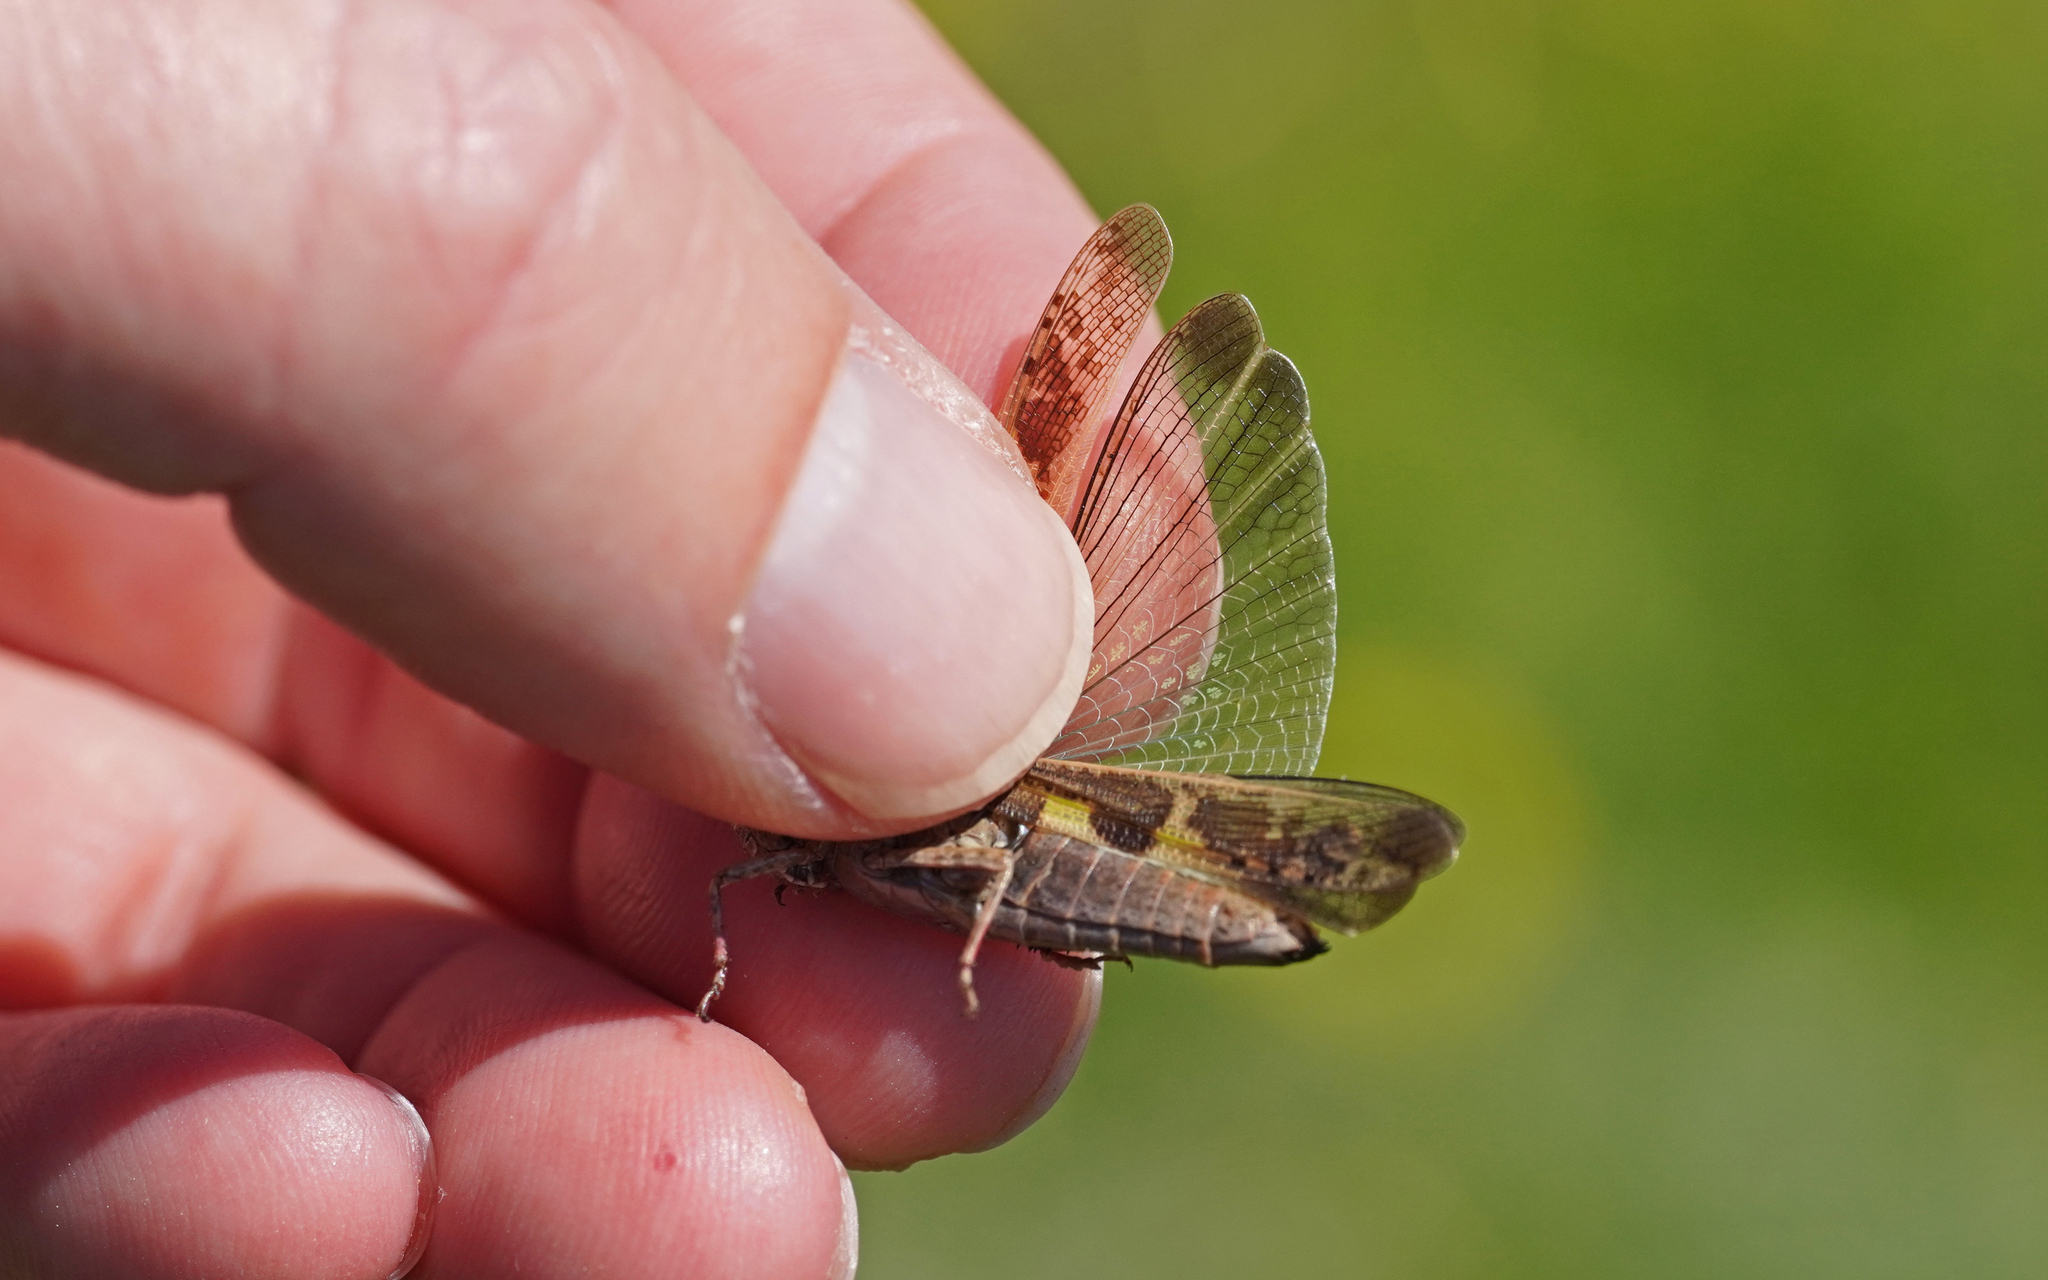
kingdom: Animalia
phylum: Arthropoda
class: Insecta
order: Orthoptera
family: Acrididae
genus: Aiolopus
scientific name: Aiolopus strepens
